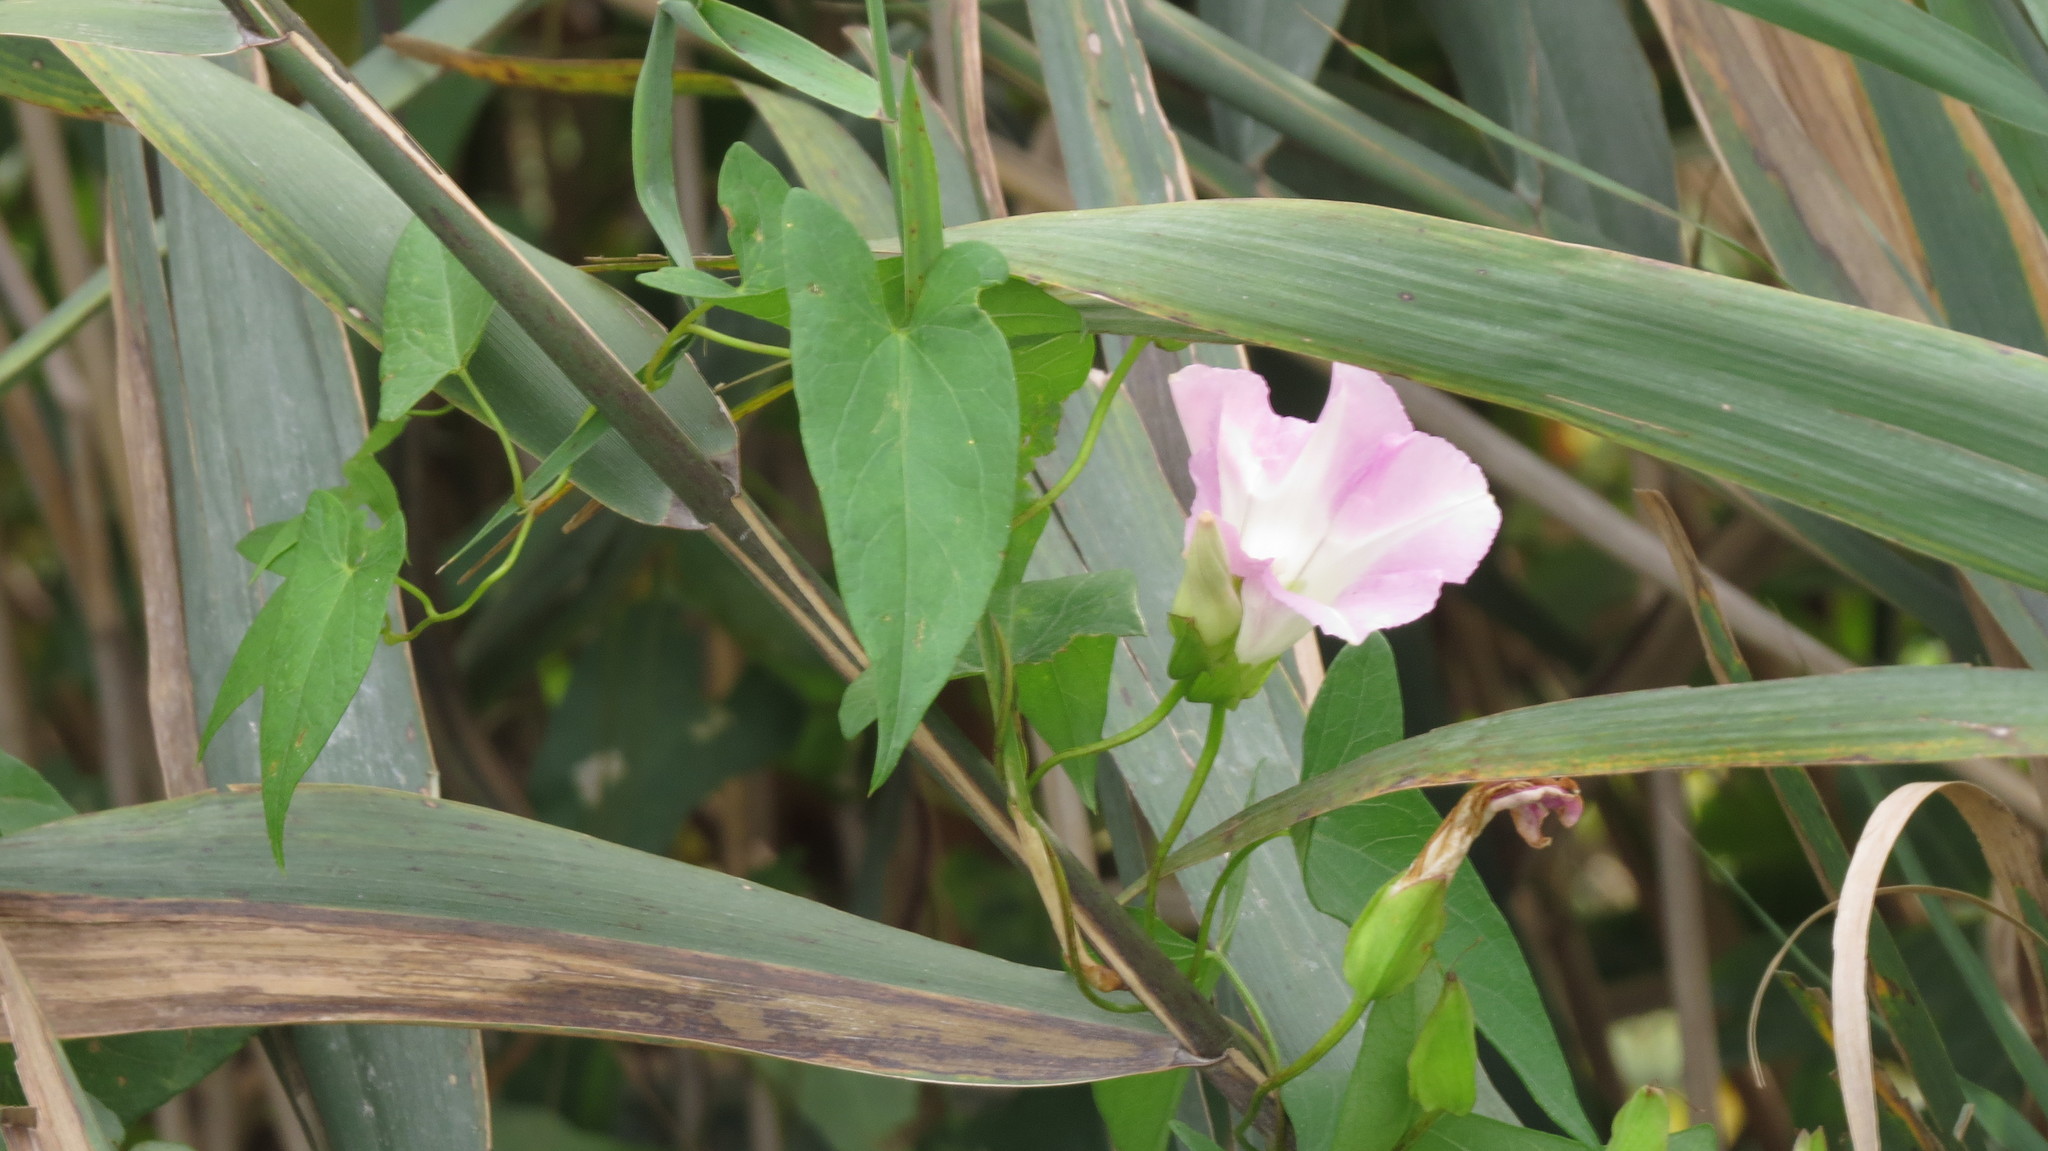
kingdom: Plantae
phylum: Tracheophyta
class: Magnoliopsida
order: Solanales
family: Convolvulaceae
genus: Calystegia
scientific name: Calystegia sepium
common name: Hedge bindweed
